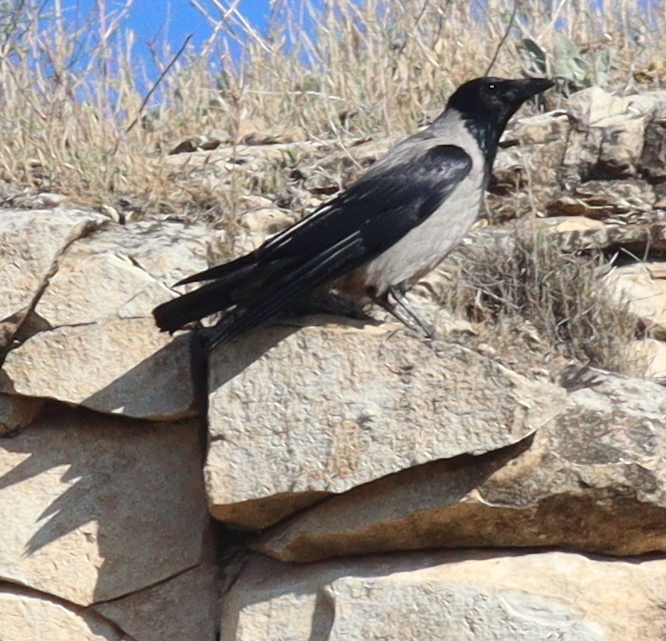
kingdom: Animalia
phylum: Chordata
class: Aves
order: Passeriformes
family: Corvidae
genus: Corvus
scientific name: Corvus cornix
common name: Hooded crow
